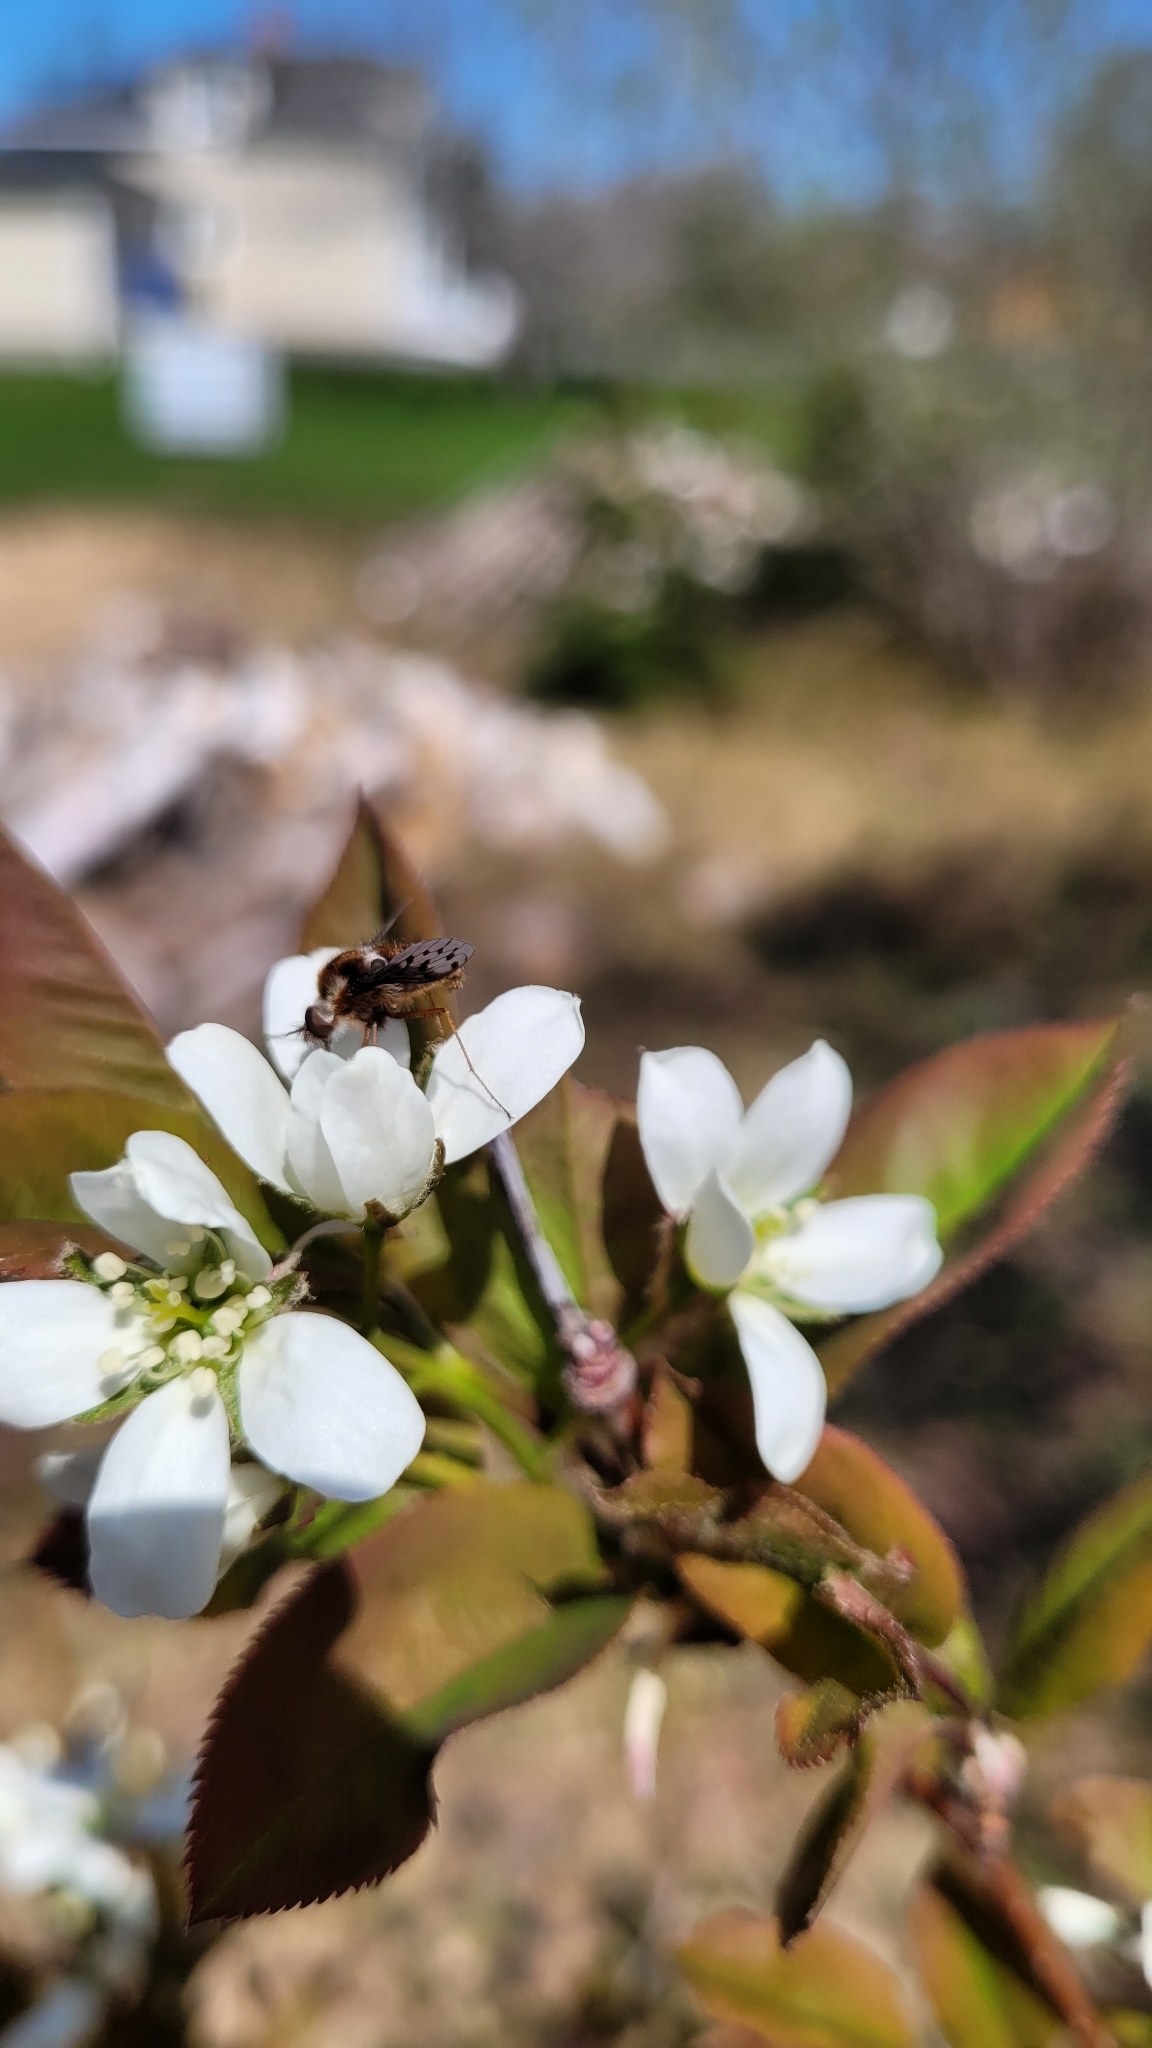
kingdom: Animalia
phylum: Arthropoda
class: Insecta
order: Diptera
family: Bombyliidae
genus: Bombylius
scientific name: Bombylius pygmaeus
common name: Pygmy bee fly
